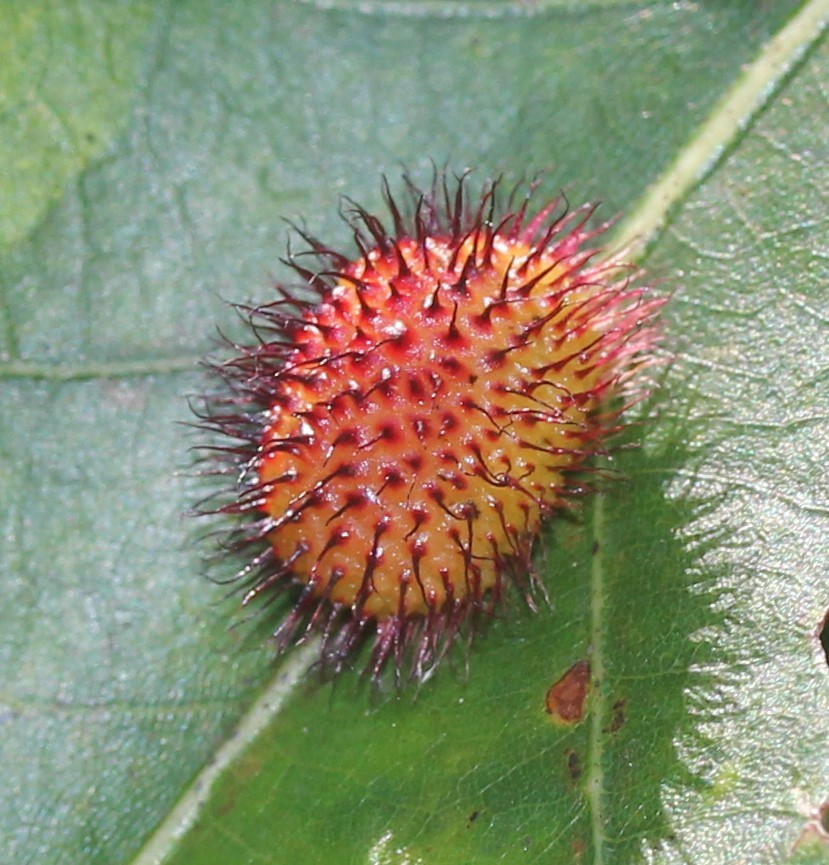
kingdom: Animalia
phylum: Arthropoda
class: Insecta
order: Hymenoptera
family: Cynipidae
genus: Acraspis
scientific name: Acraspis erinacei
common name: Hedgehog gall wasp
